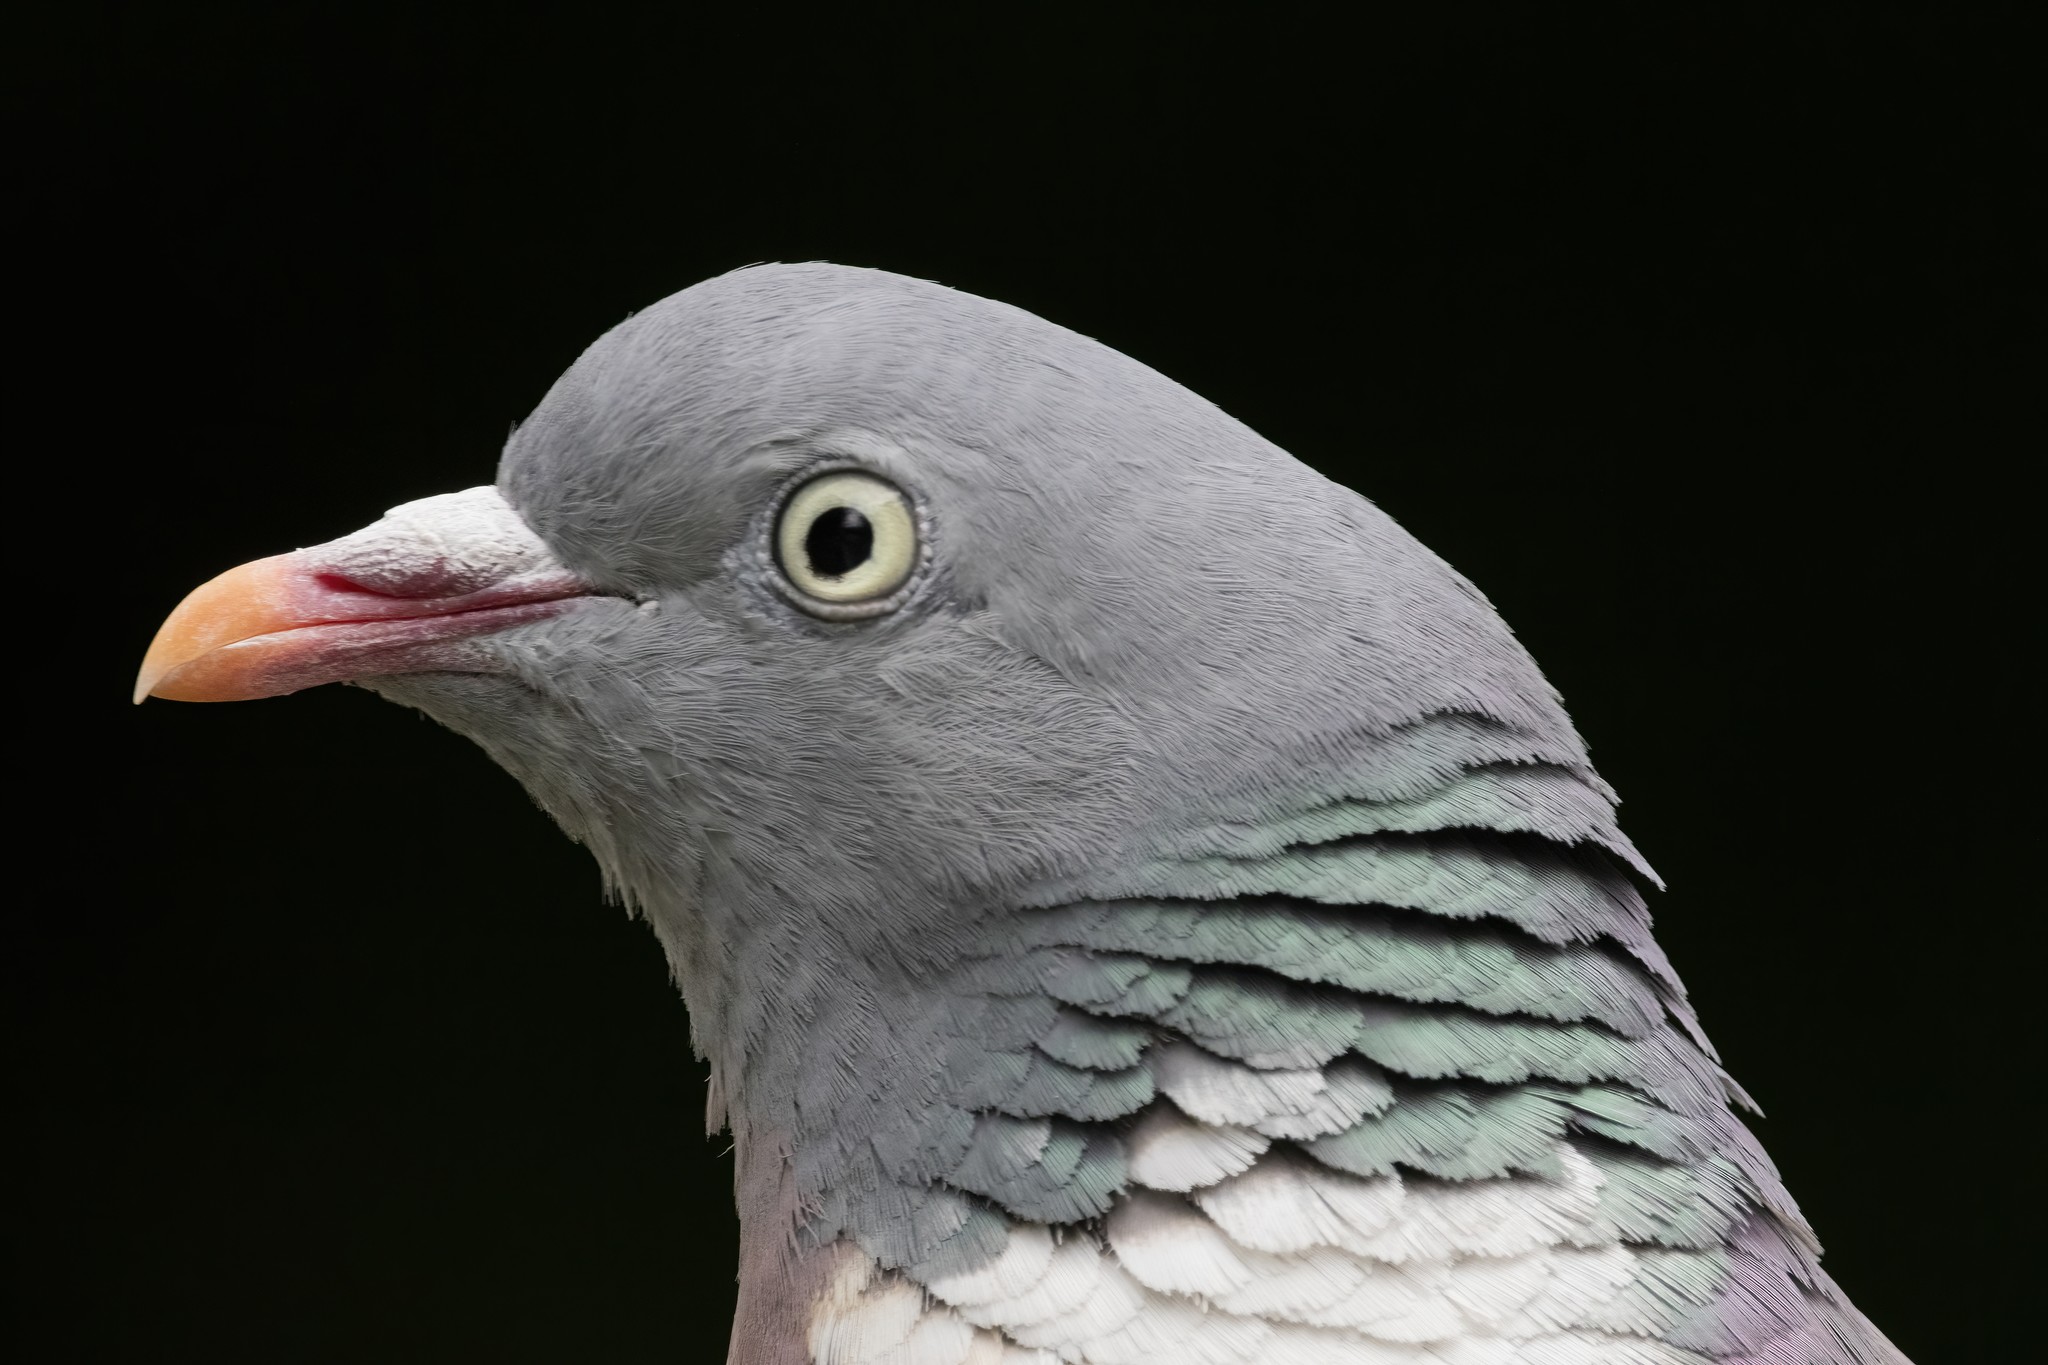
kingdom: Animalia
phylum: Chordata
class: Aves
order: Columbiformes
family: Columbidae
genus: Columba
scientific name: Columba palumbus
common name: Common wood pigeon
